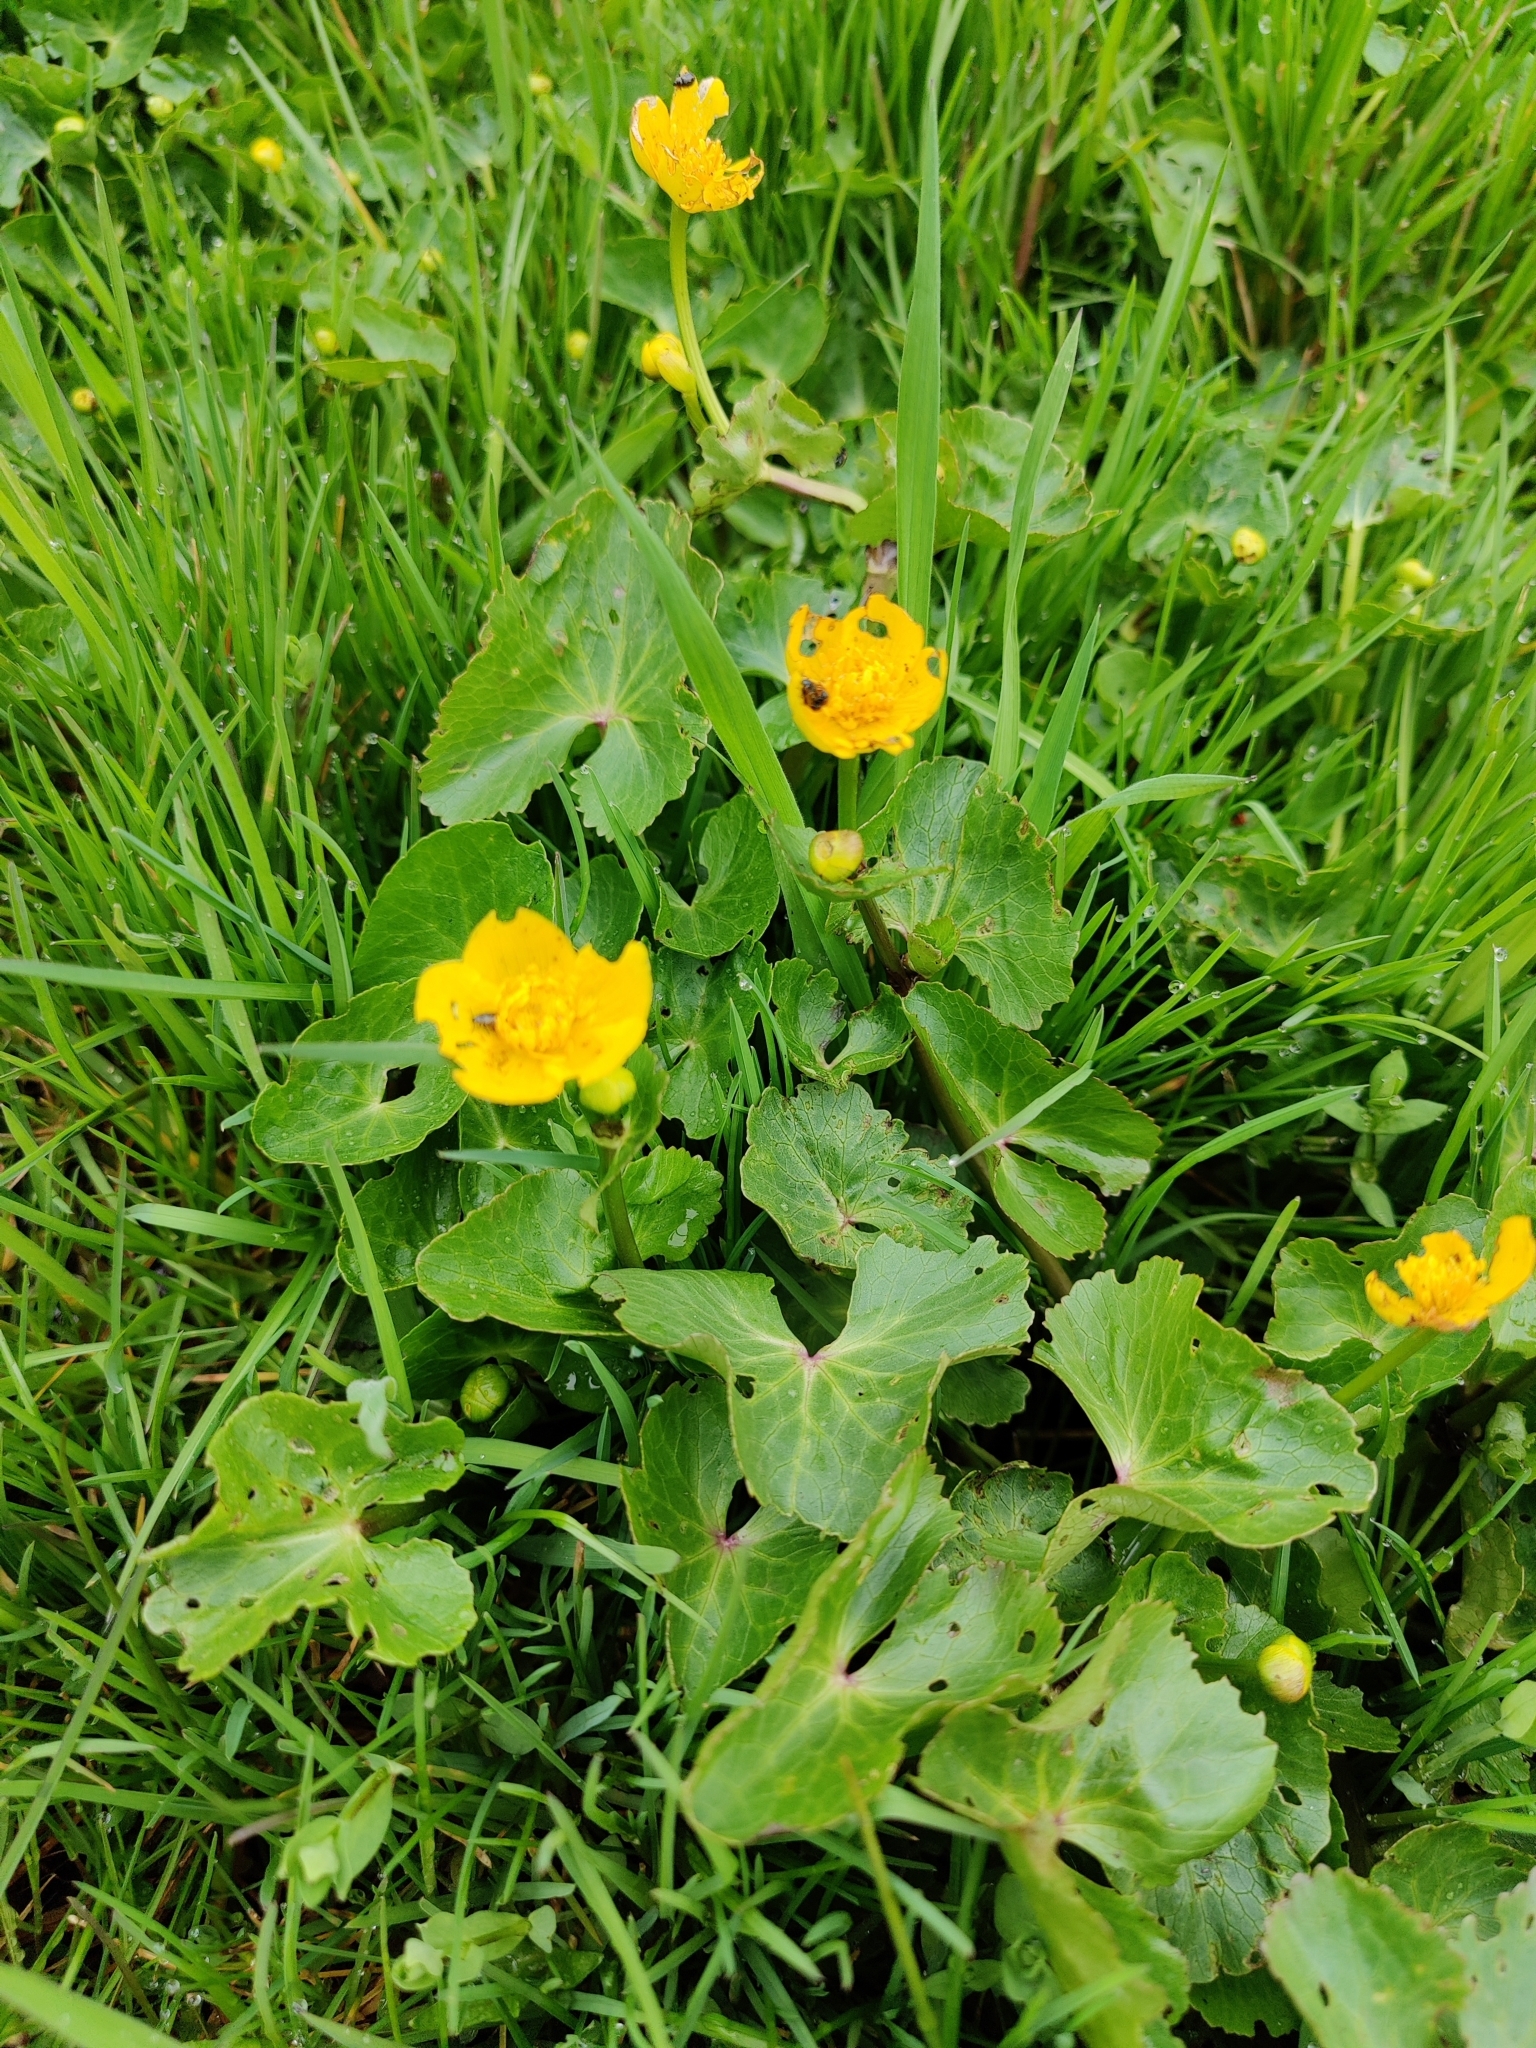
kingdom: Plantae
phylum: Tracheophyta
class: Magnoliopsida
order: Ranunculales
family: Ranunculaceae
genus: Caltha
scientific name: Caltha palustris
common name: Marsh marigold
